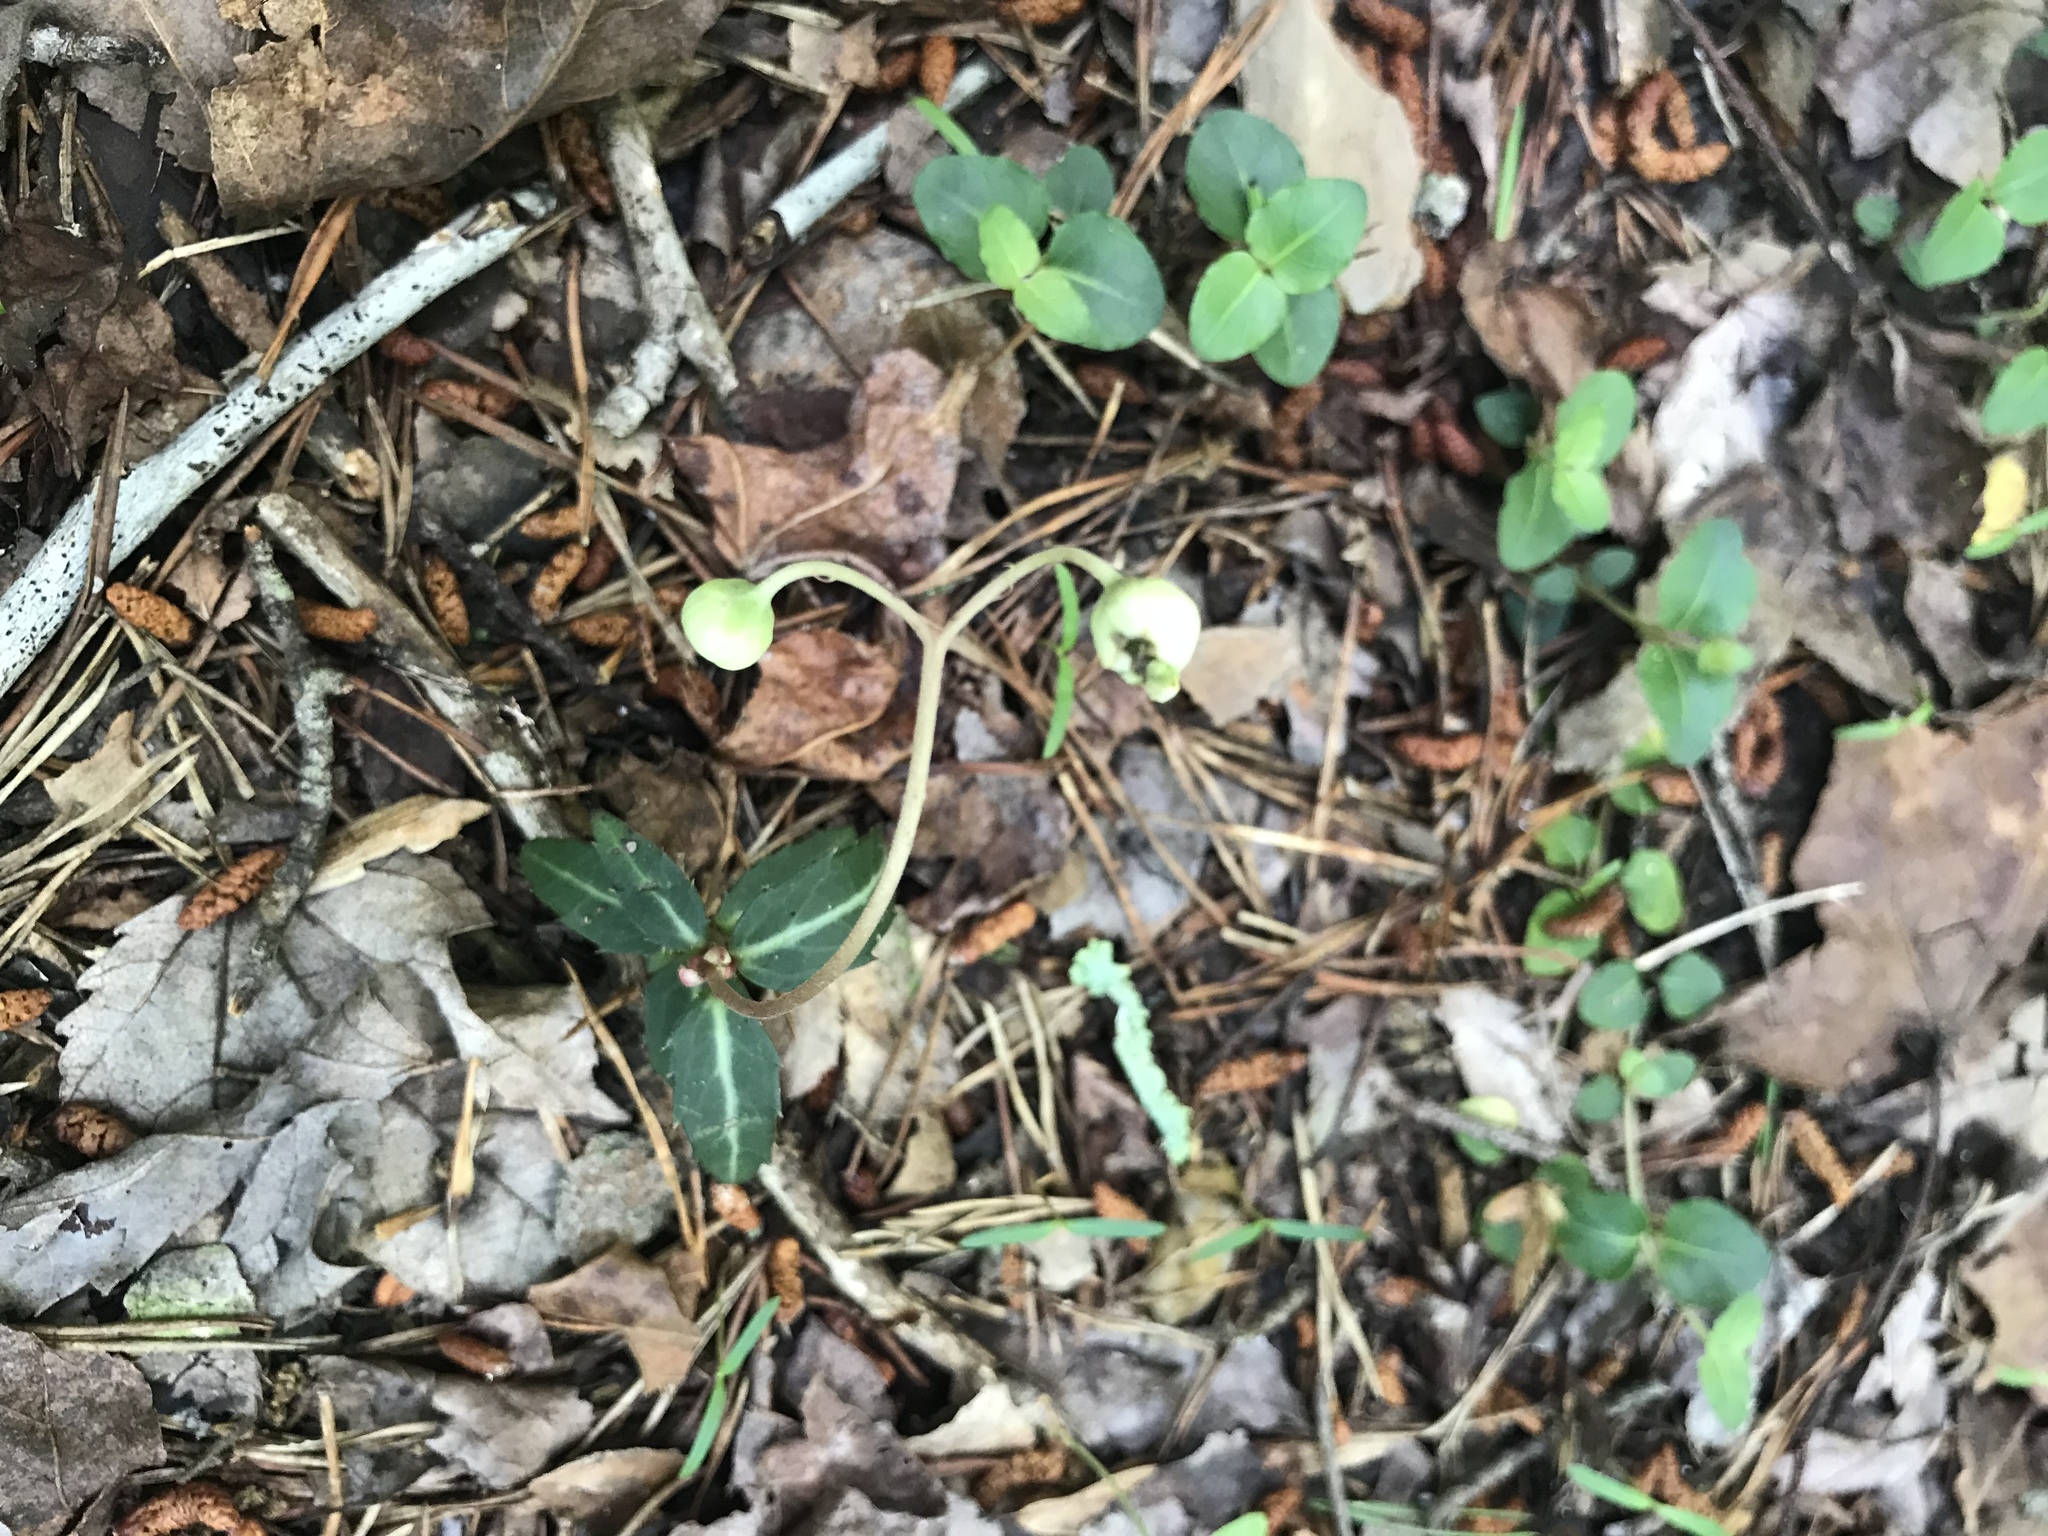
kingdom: Plantae
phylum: Tracheophyta
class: Magnoliopsida
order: Ericales
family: Ericaceae
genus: Chimaphila
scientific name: Chimaphila maculata
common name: Spotted pipsissewa
